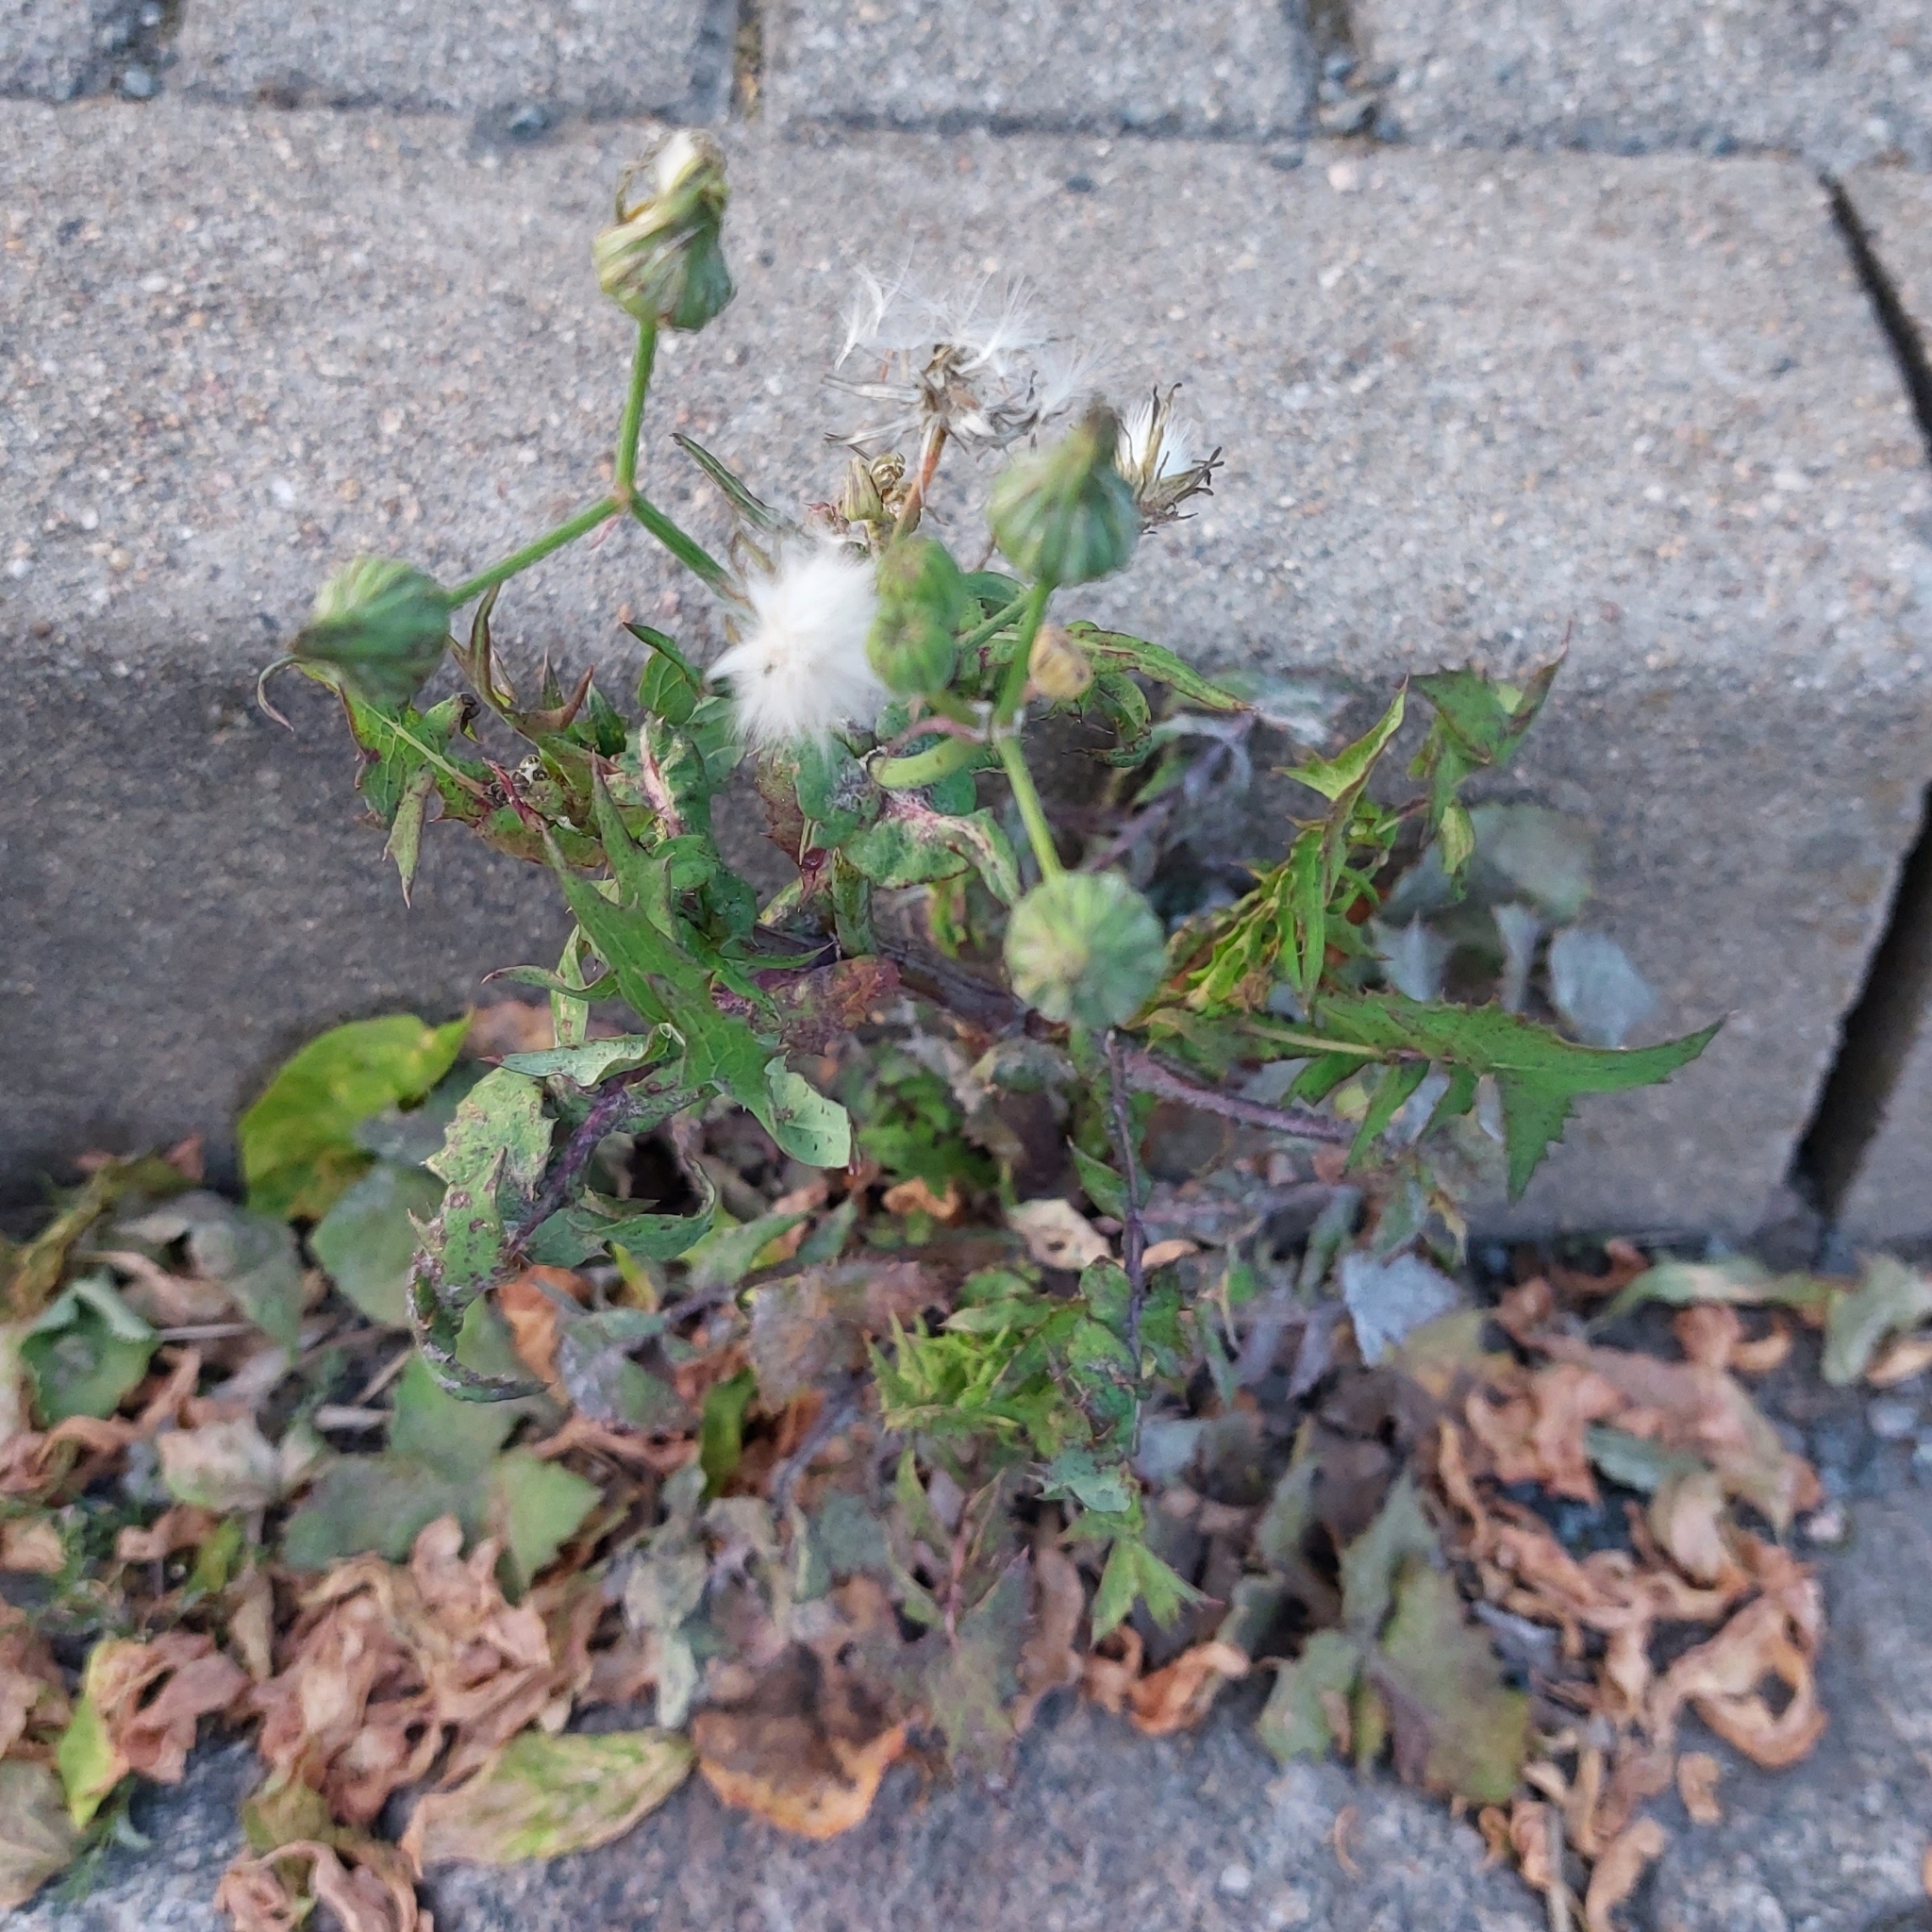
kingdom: Plantae
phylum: Tracheophyta
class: Magnoliopsida
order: Asterales
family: Asteraceae
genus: Sonchus
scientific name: Sonchus oleraceus
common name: Common sowthistle
